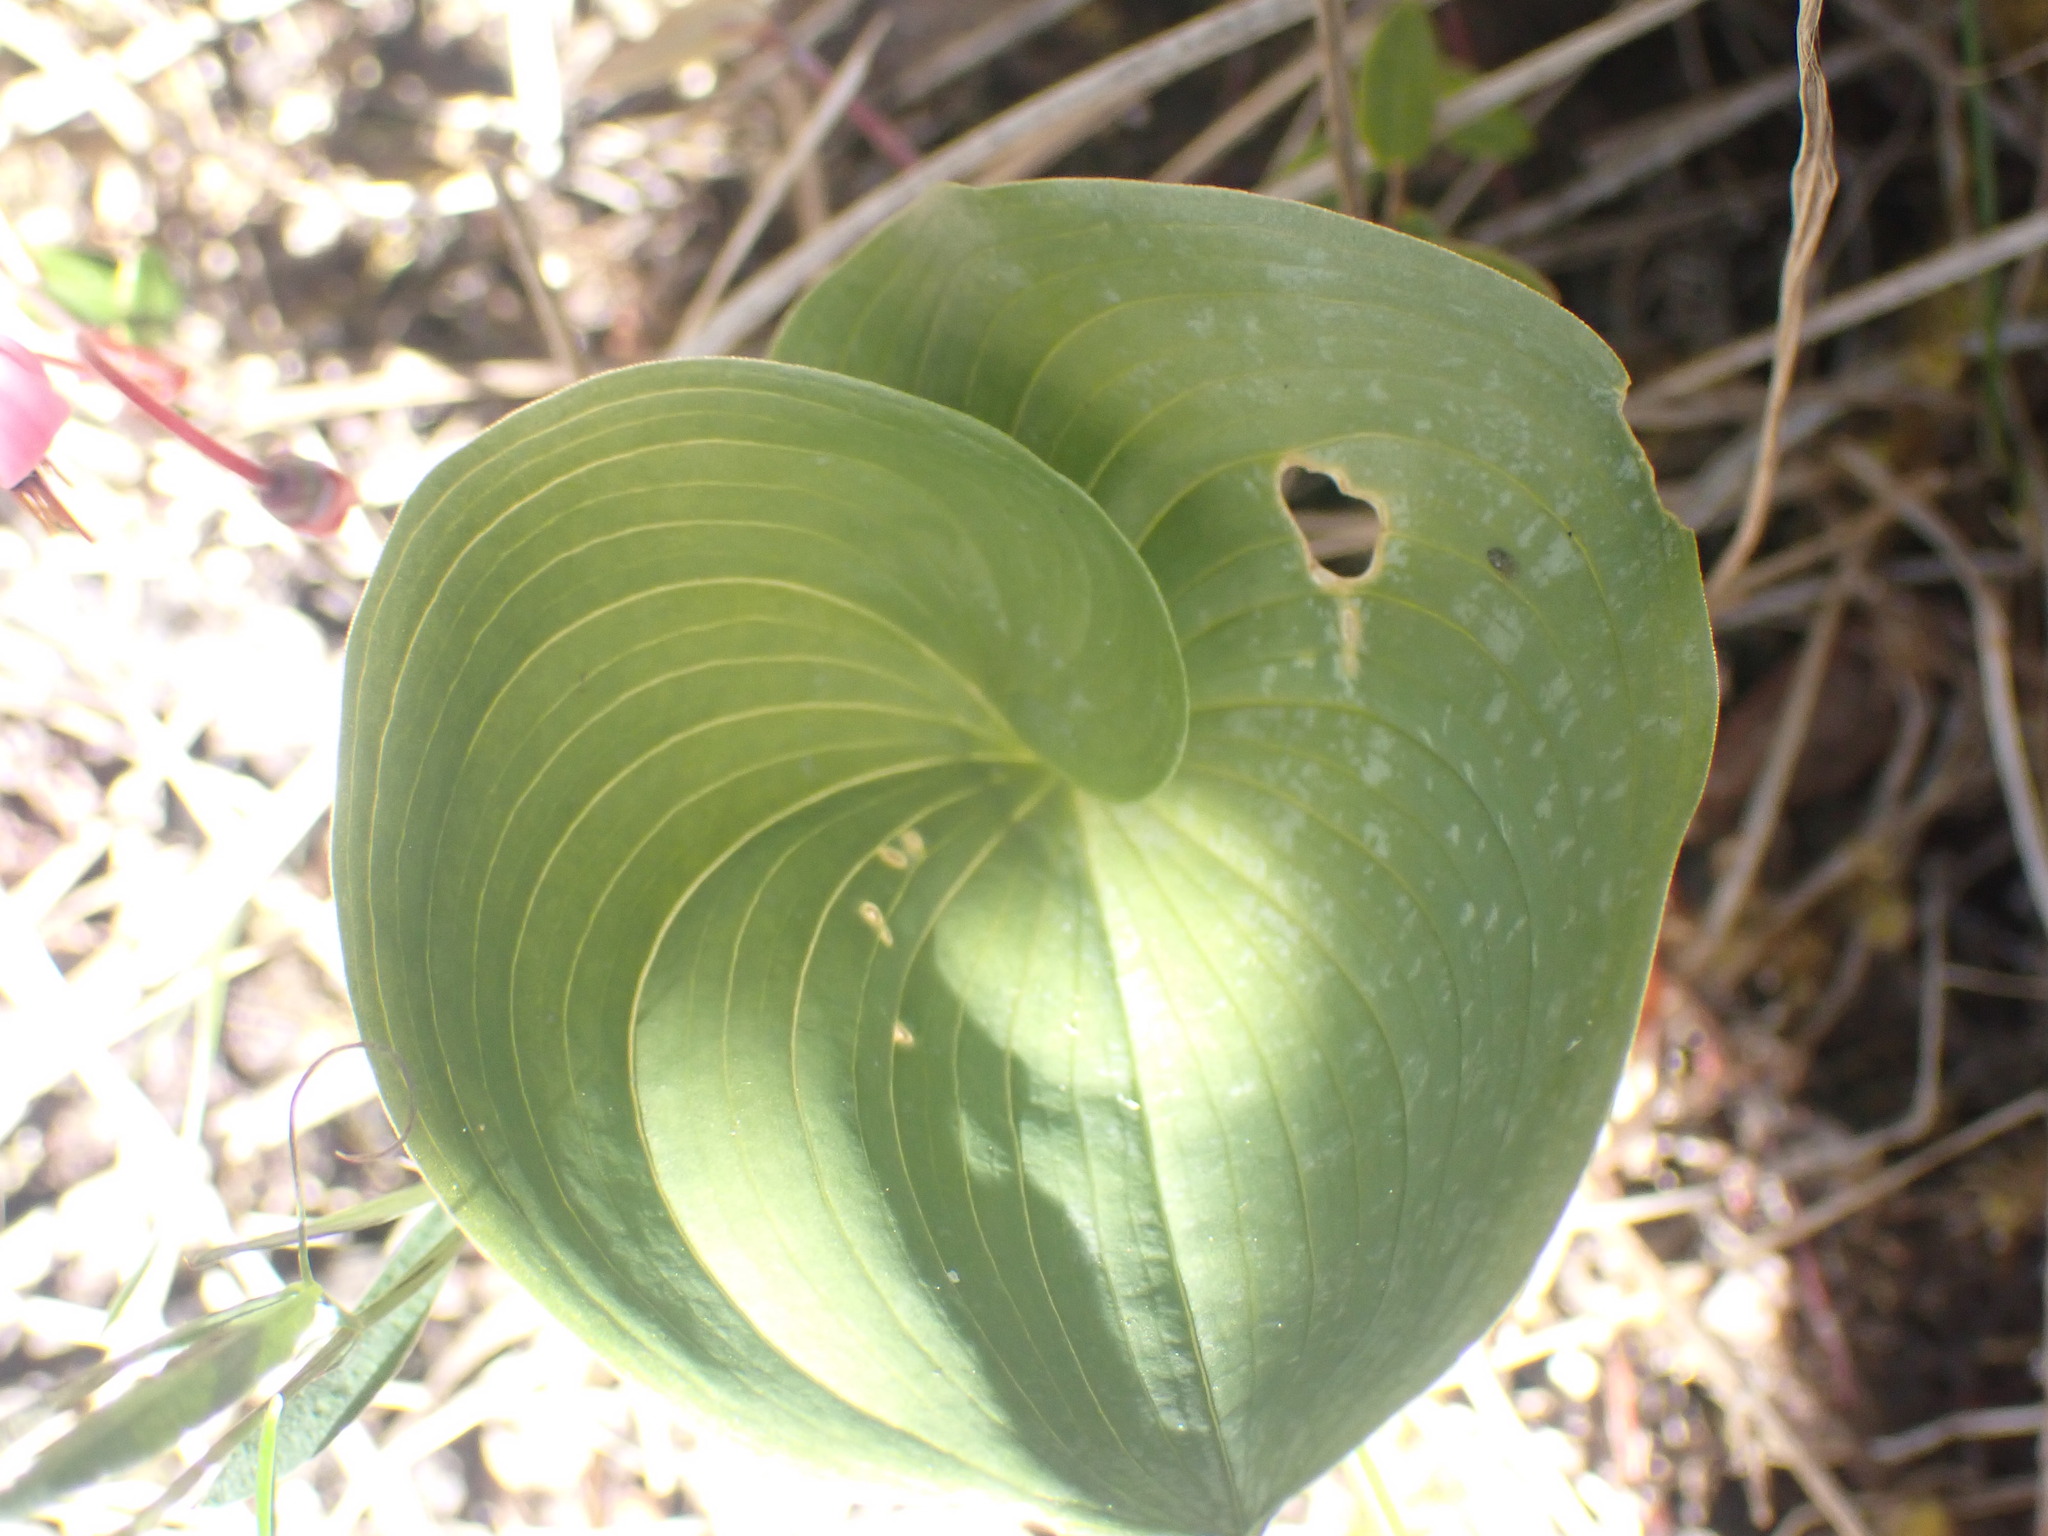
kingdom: Plantae
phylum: Tracheophyta
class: Liliopsida
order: Asparagales
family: Asparagaceae
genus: Maianthemum
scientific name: Maianthemum dilatatum
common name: False lily-of-the-valley
